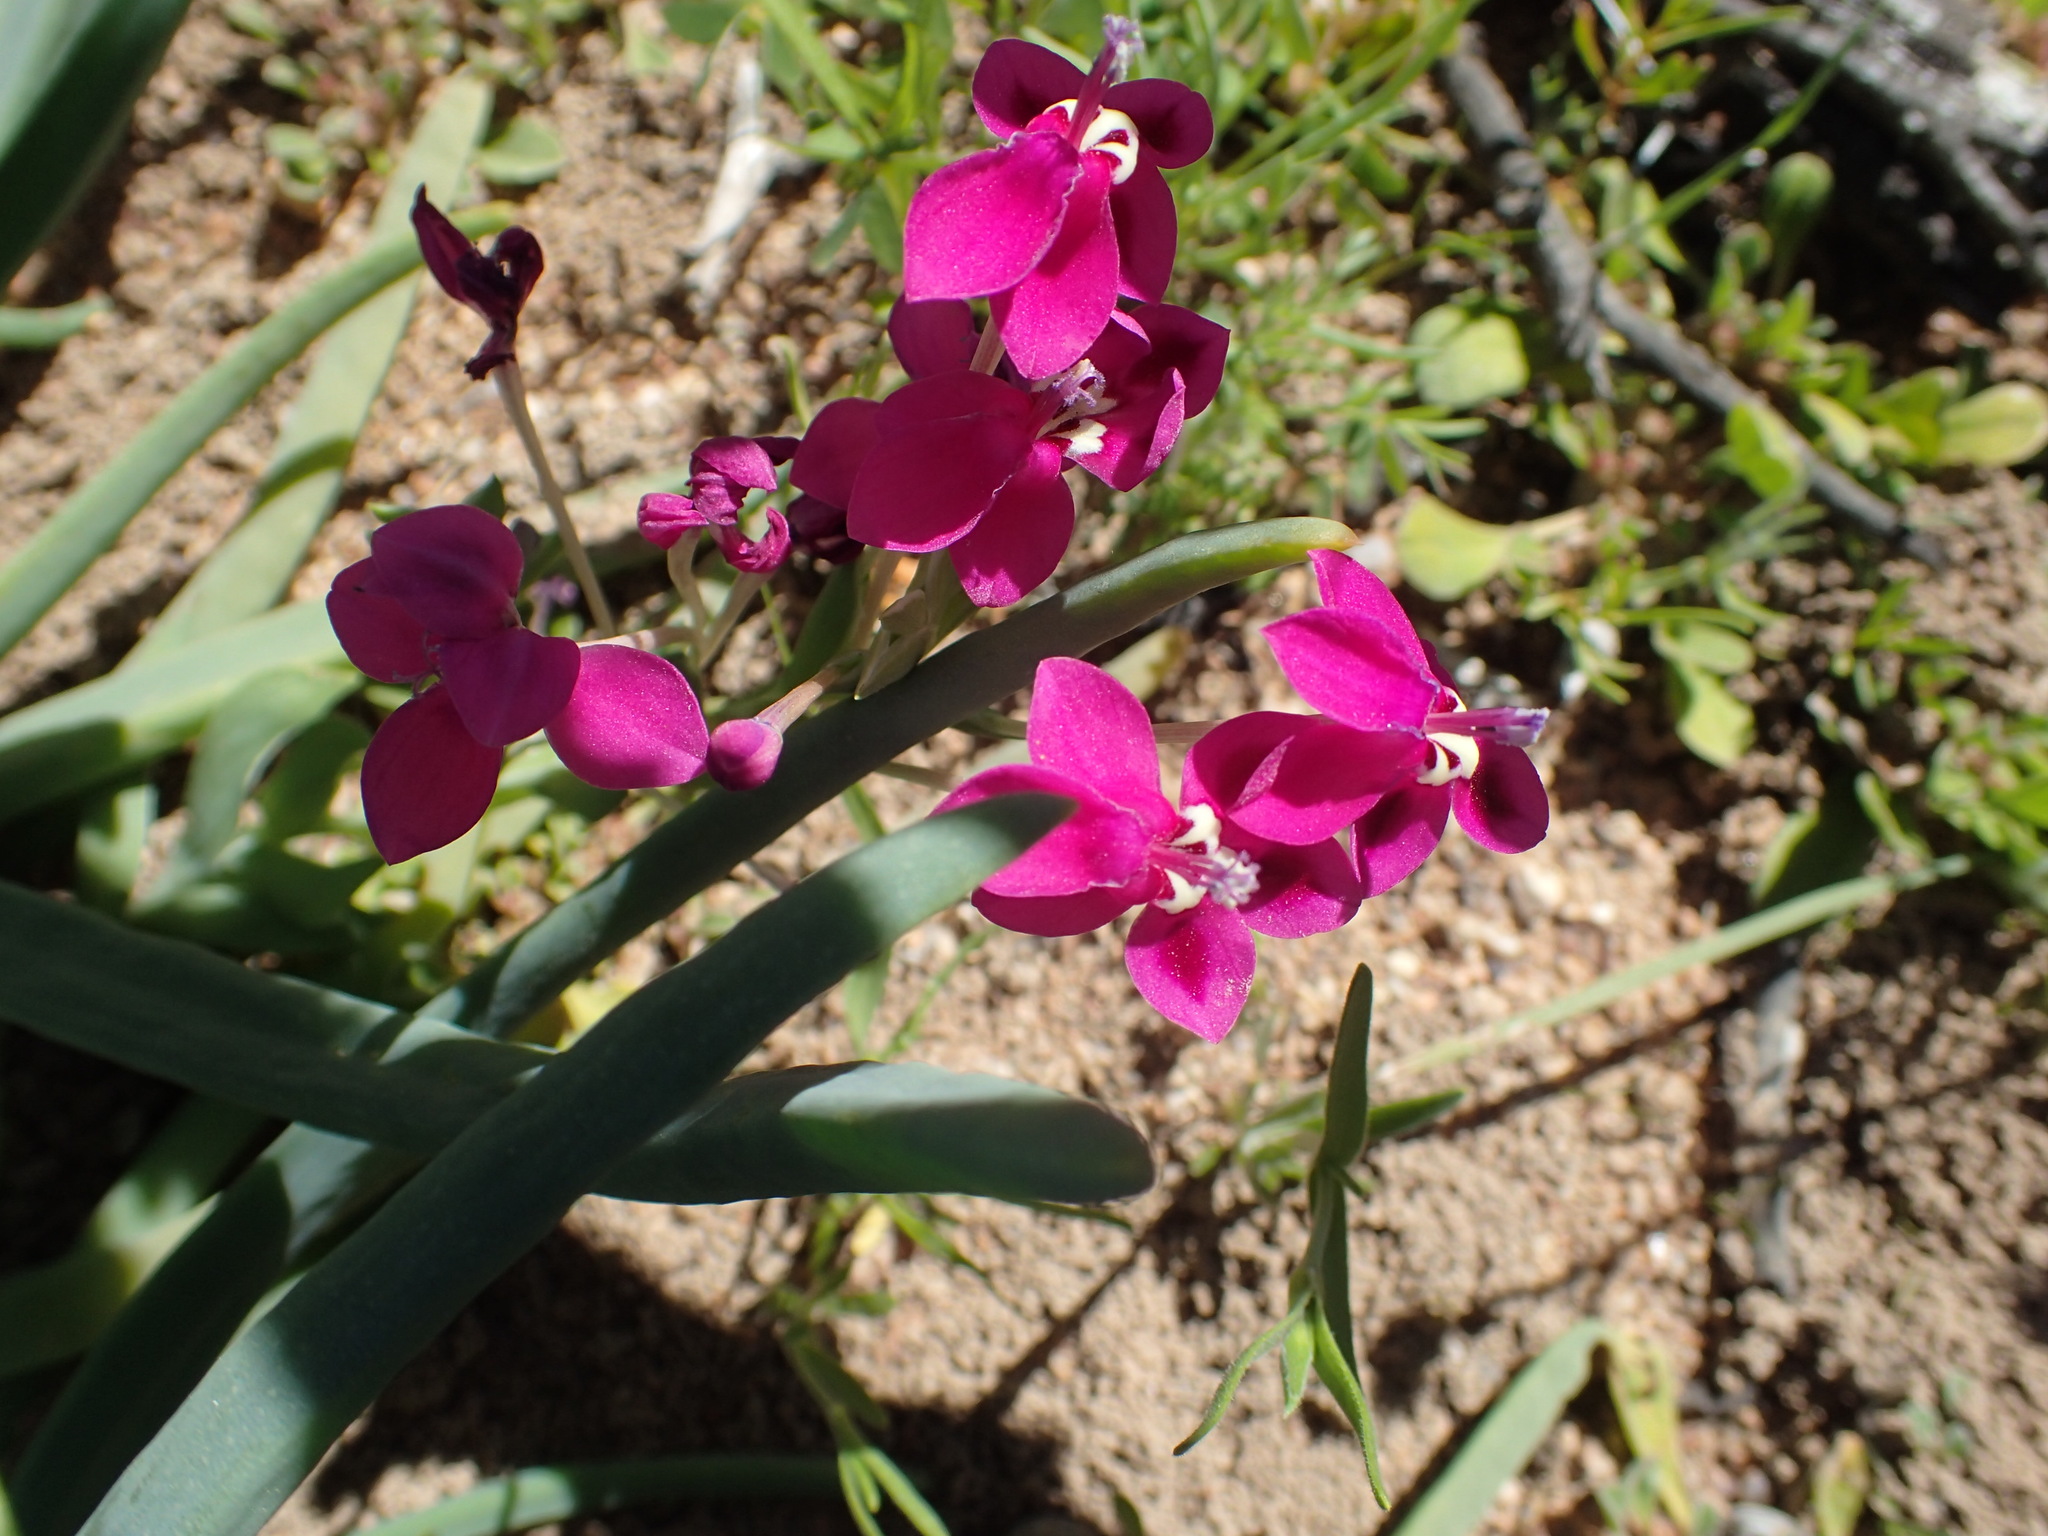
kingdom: Plantae
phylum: Tracheophyta
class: Liliopsida
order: Asparagales
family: Iridaceae
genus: Lapeirousia
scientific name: Lapeirousia silenoides
